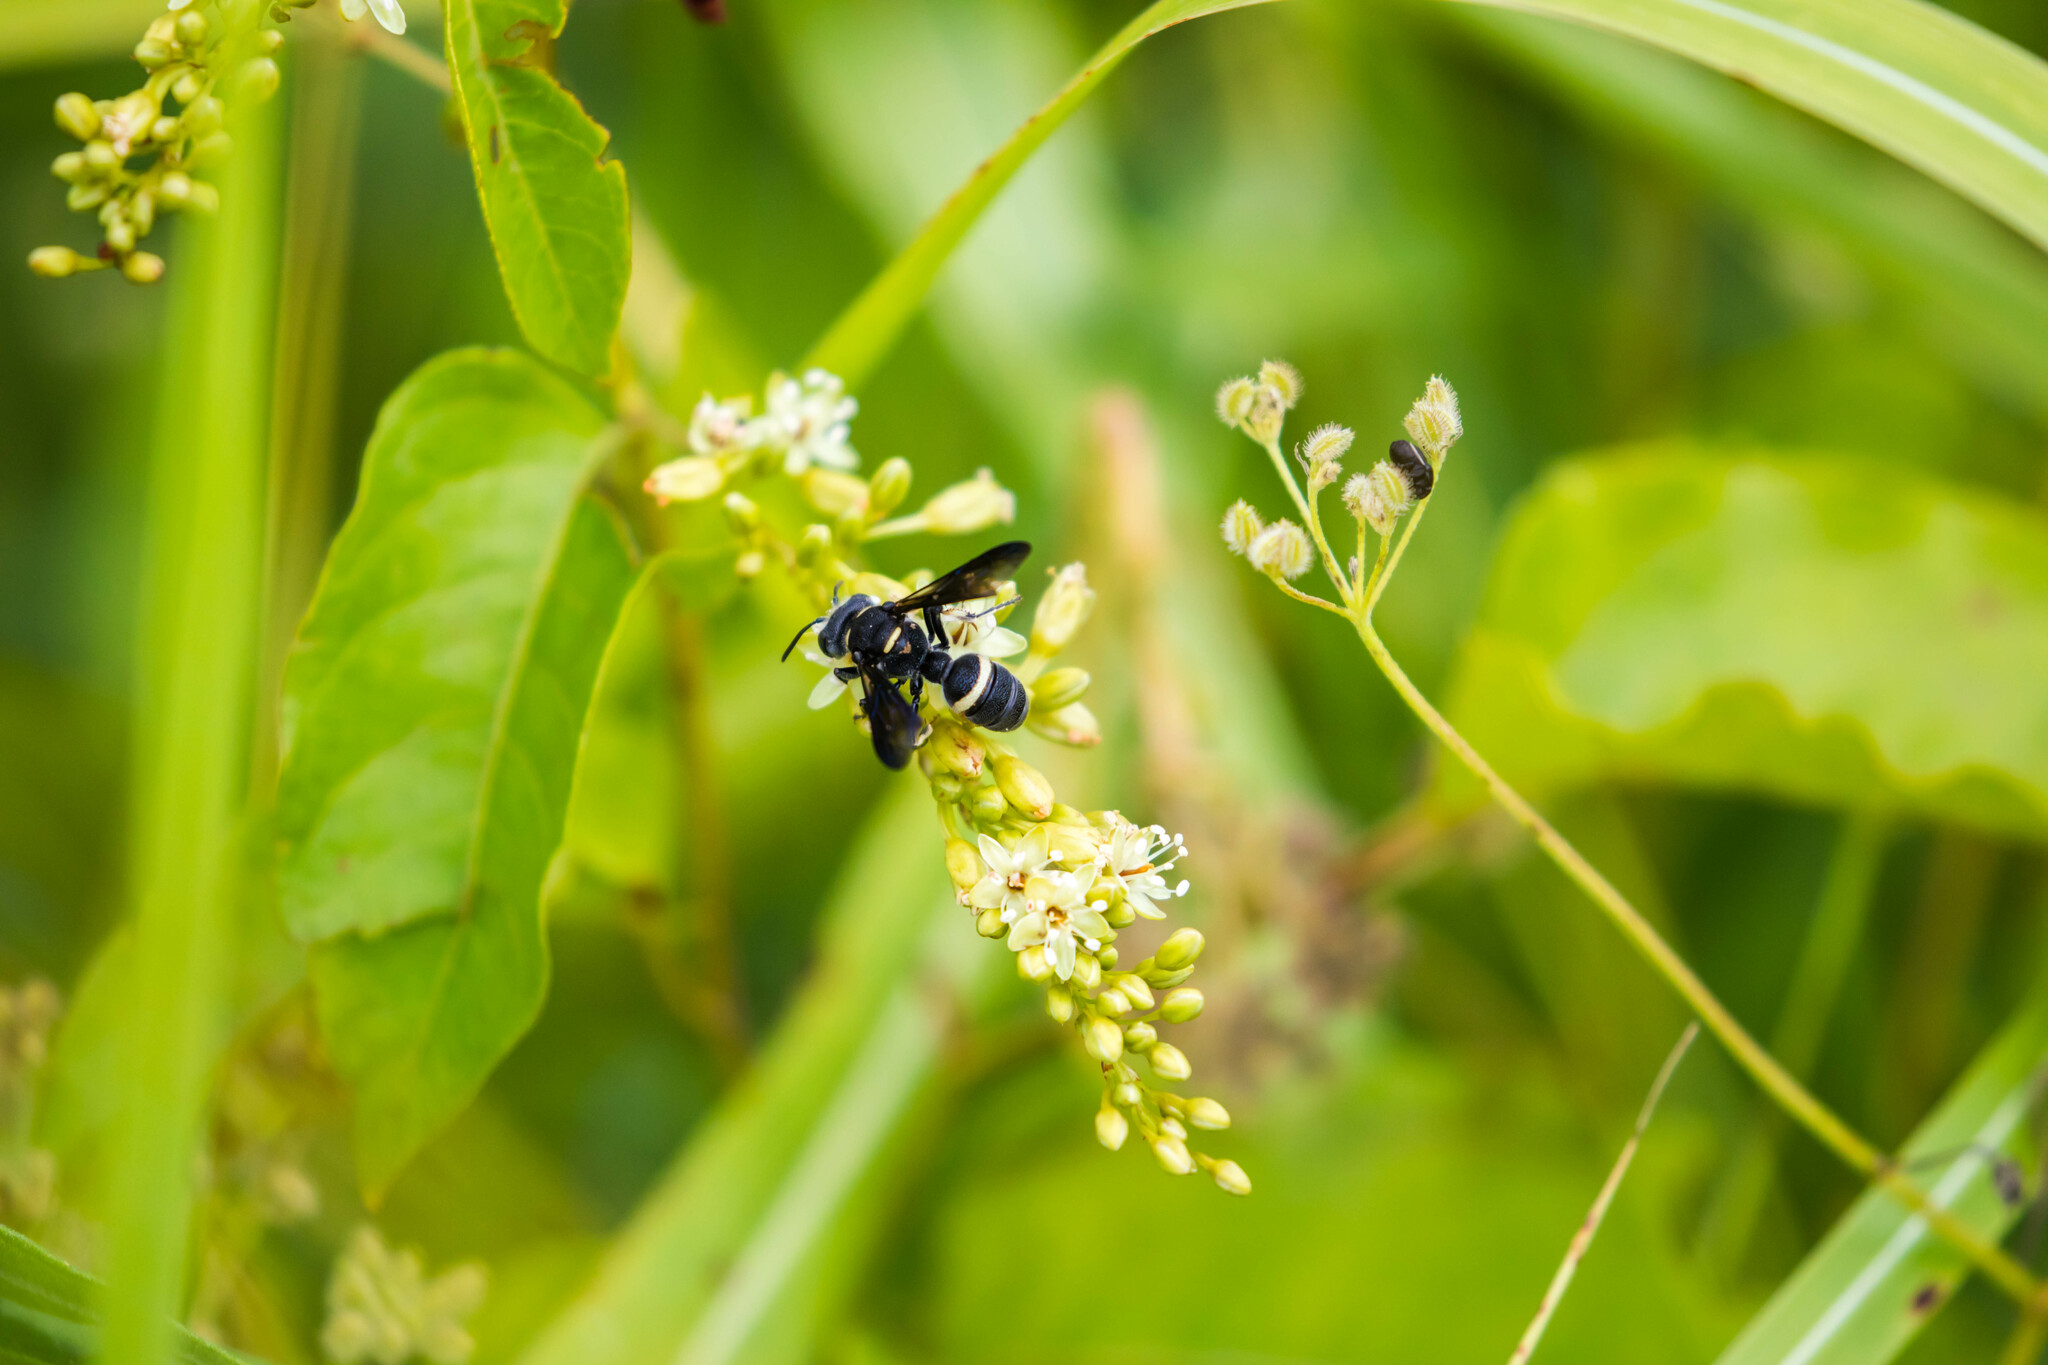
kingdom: Animalia
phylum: Arthropoda
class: Insecta
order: Hymenoptera
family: Crabronidae
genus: Cerceris
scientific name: Cerceris fumipennis
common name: Smokey-winged beetle bandit wasp
